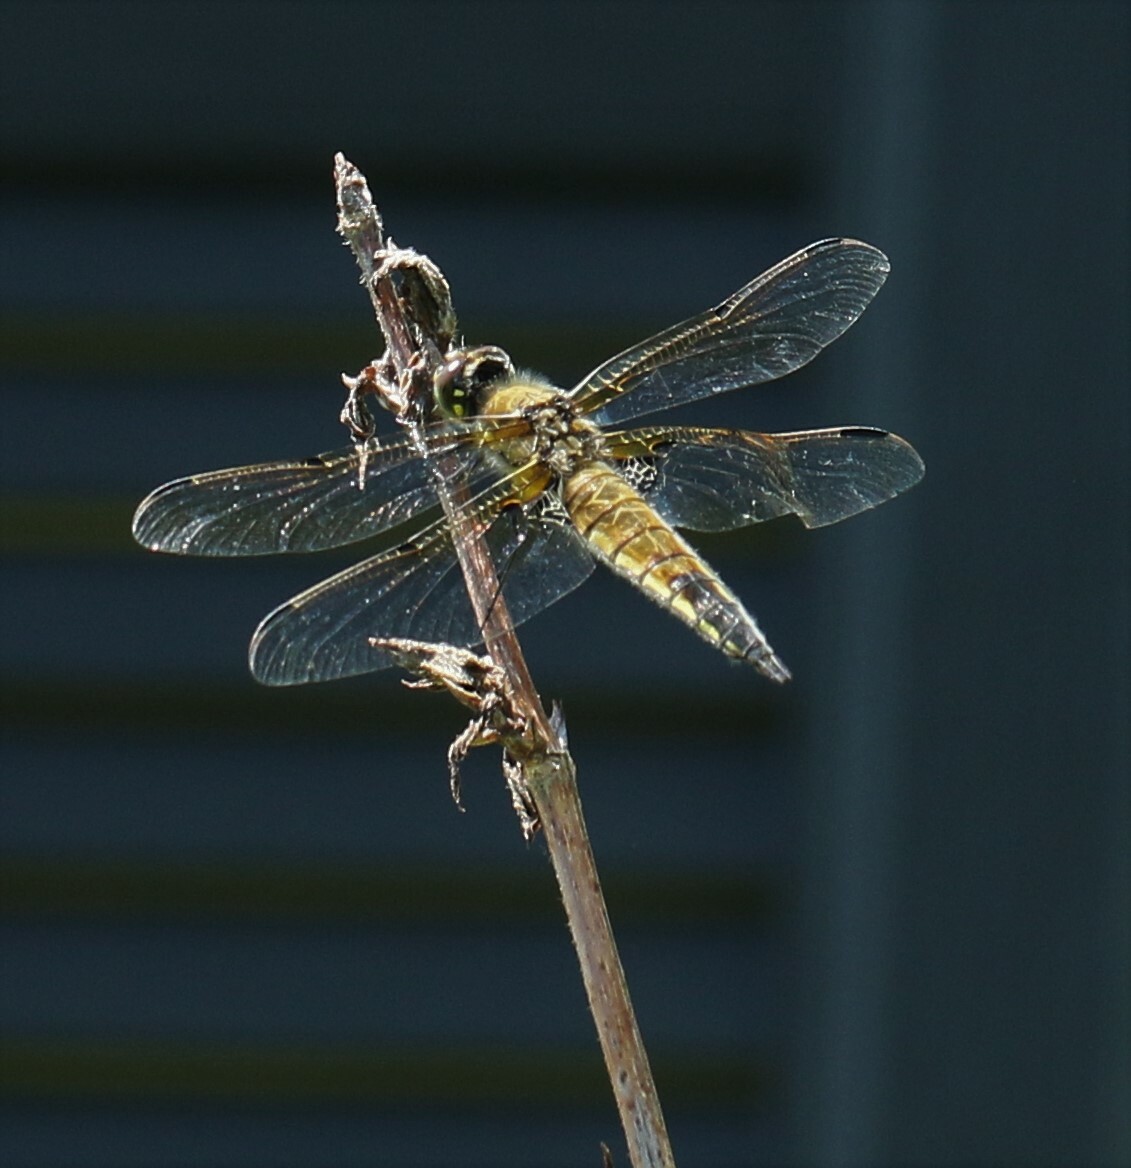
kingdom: Animalia
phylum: Arthropoda
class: Insecta
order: Odonata
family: Libellulidae
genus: Libellula
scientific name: Libellula quadrimaculata
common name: Four-spotted chaser
